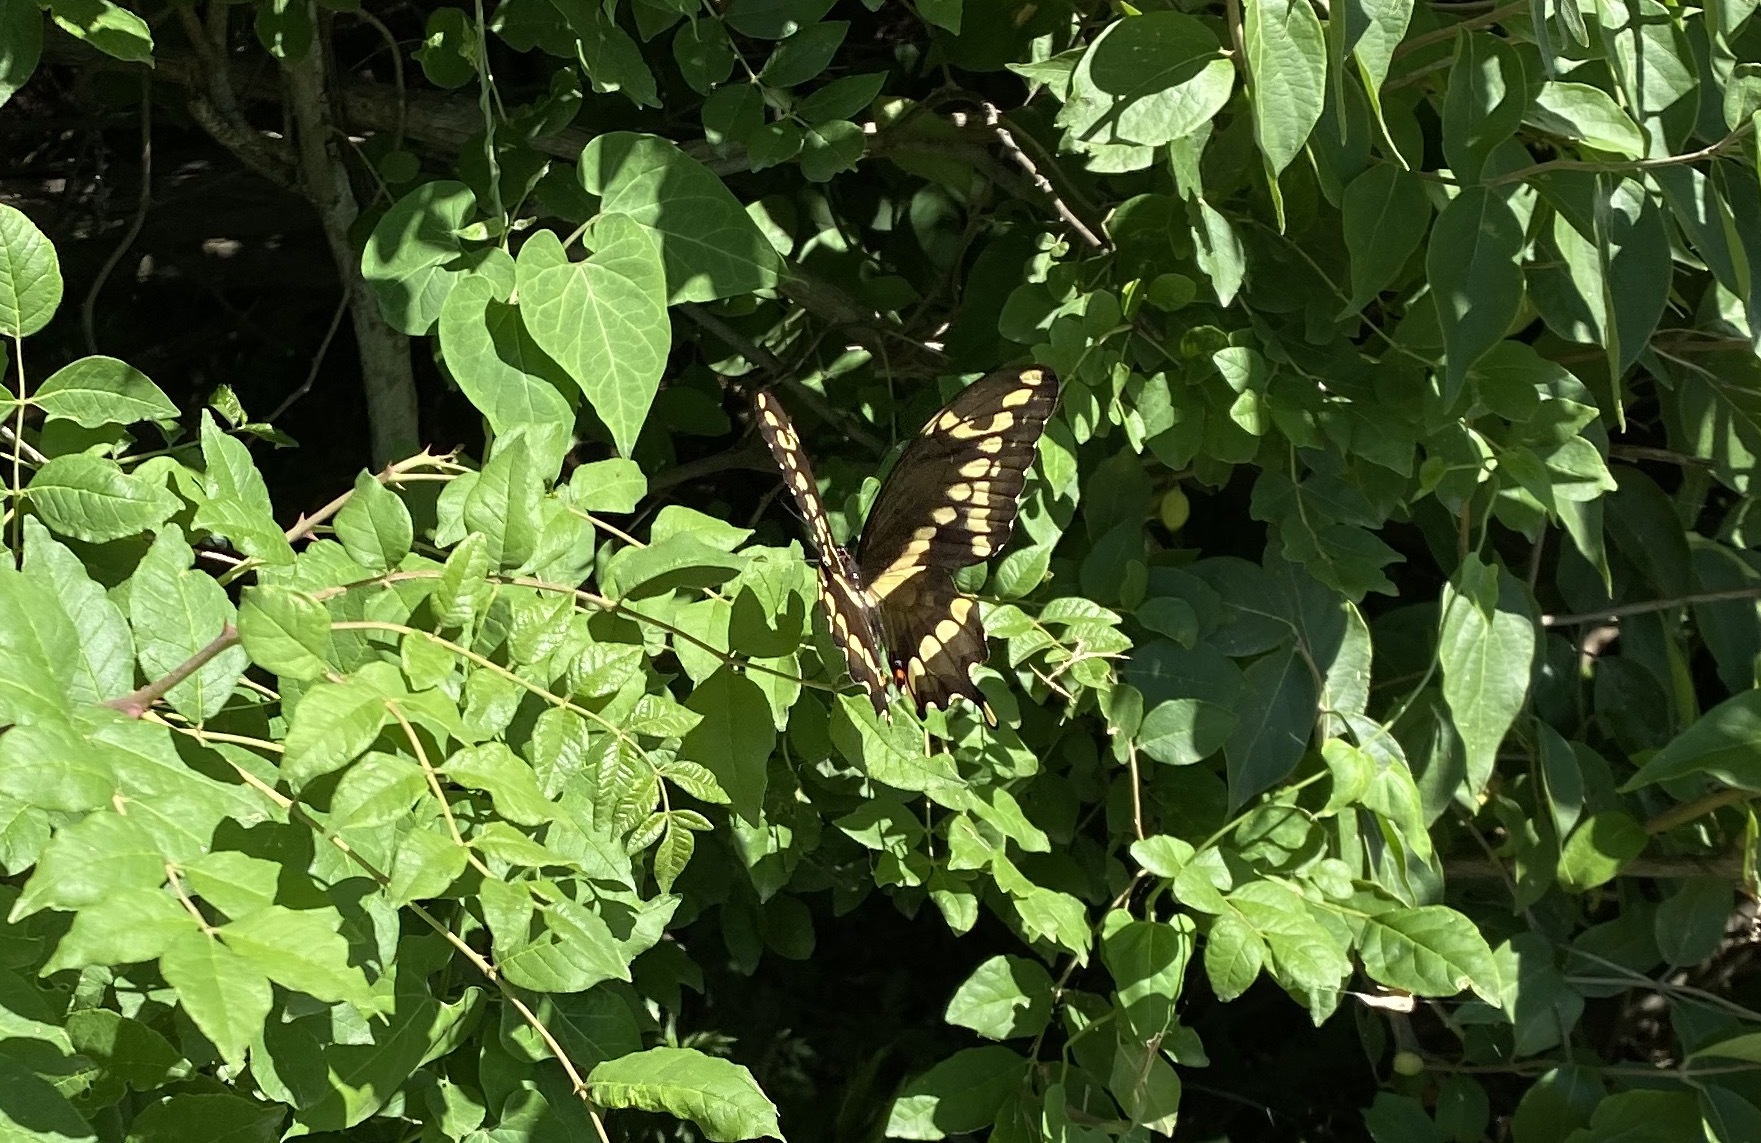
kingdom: Animalia
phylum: Arthropoda
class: Insecta
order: Lepidoptera
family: Papilionidae
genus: Papilio
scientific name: Papilio cresphontes
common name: Giant swallowtail
